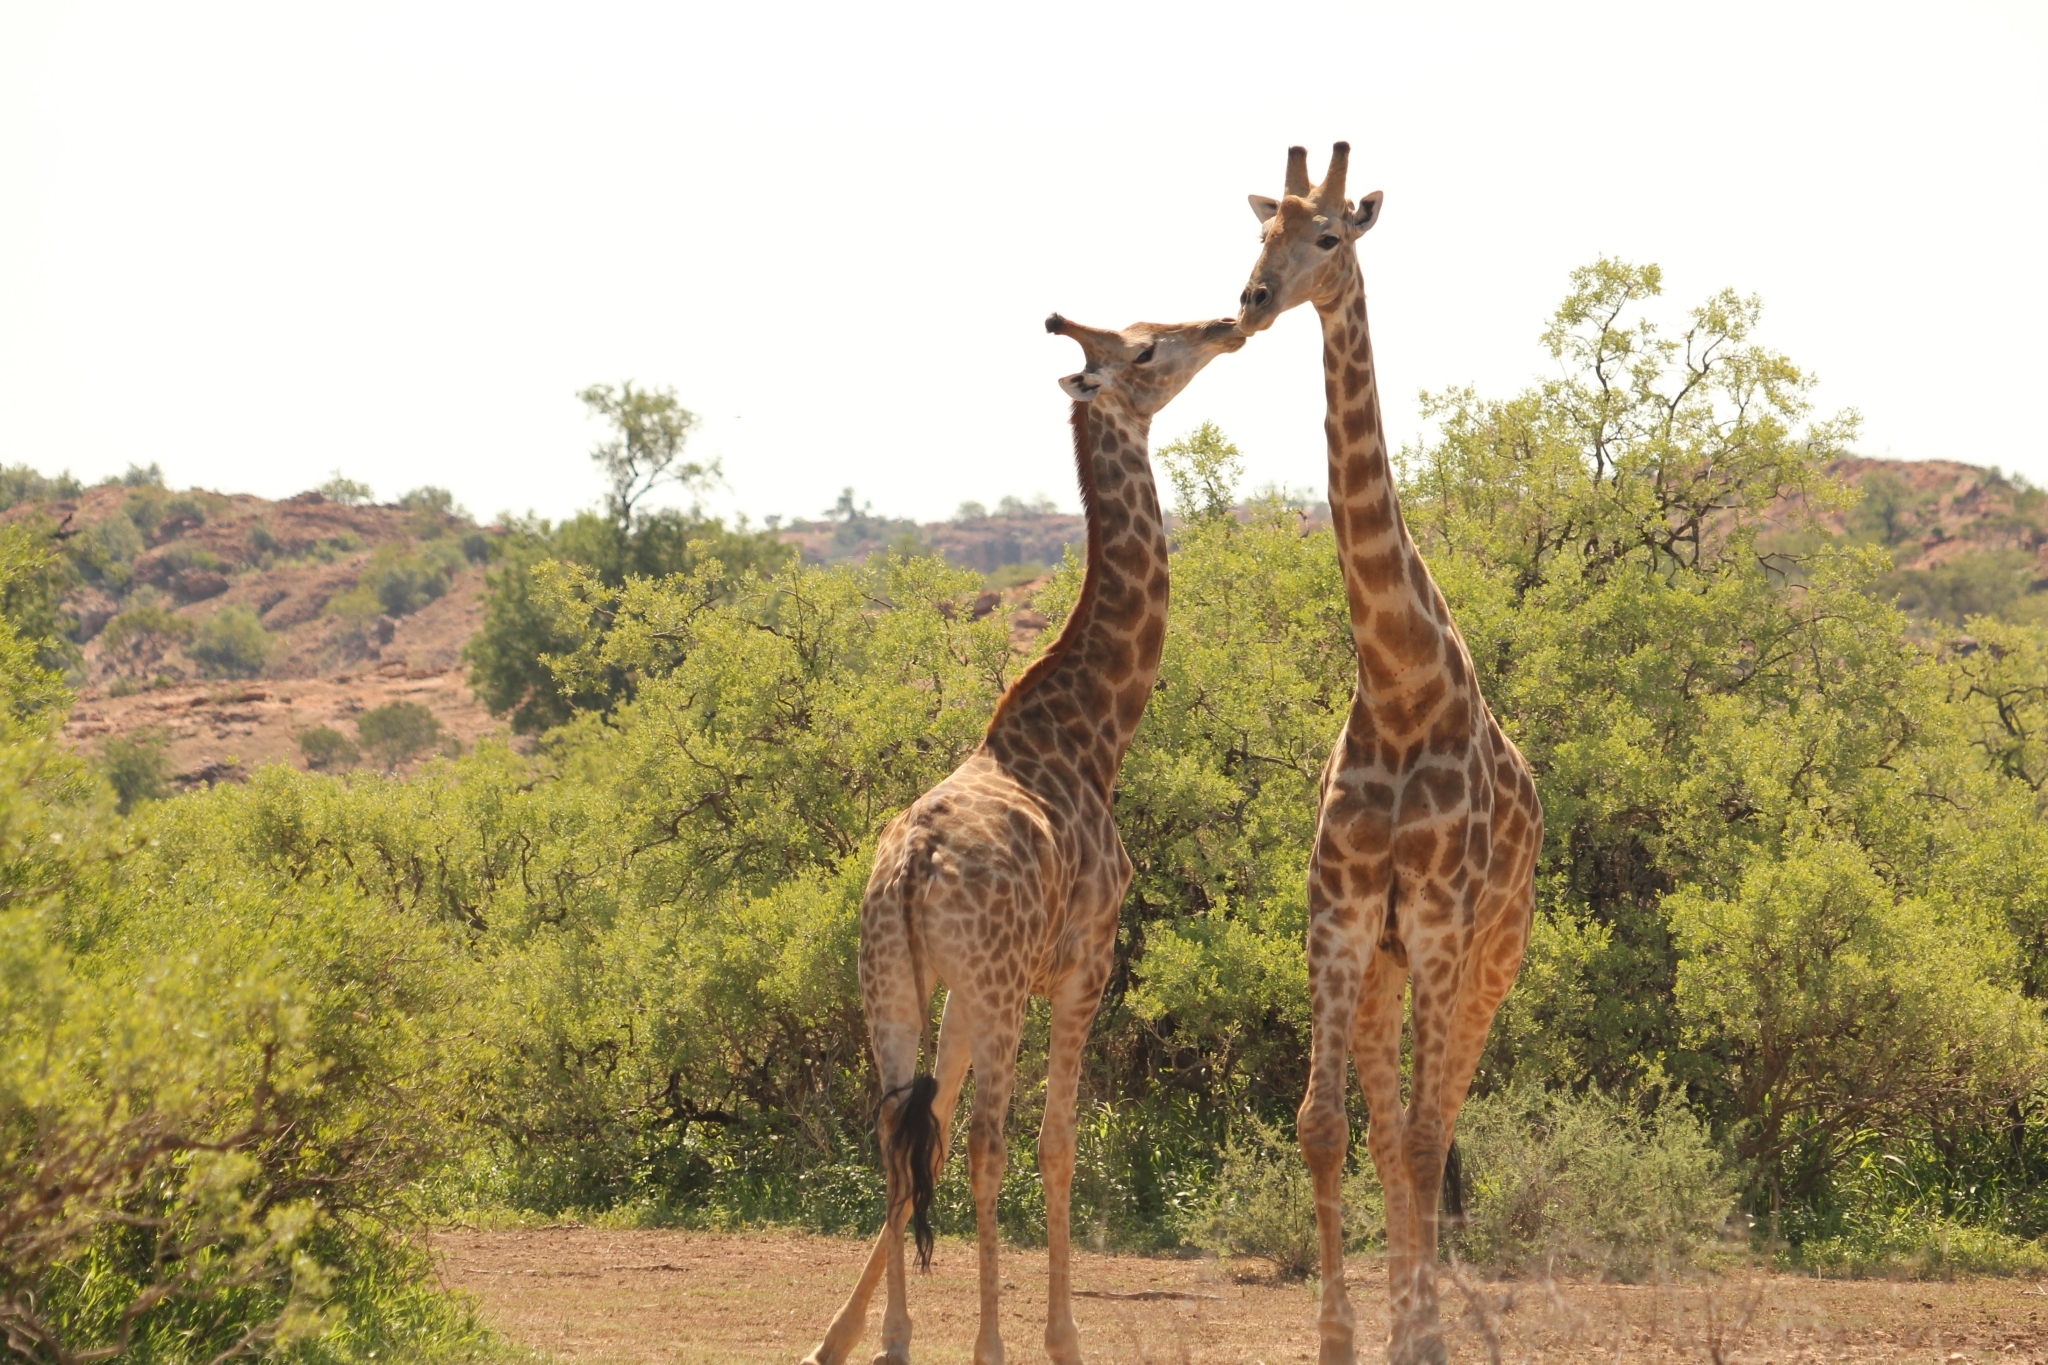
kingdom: Animalia
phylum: Chordata
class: Mammalia
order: Artiodactyla
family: Giraffidae
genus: Giraffa
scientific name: Giraffa giraffa
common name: Southern giraffe
